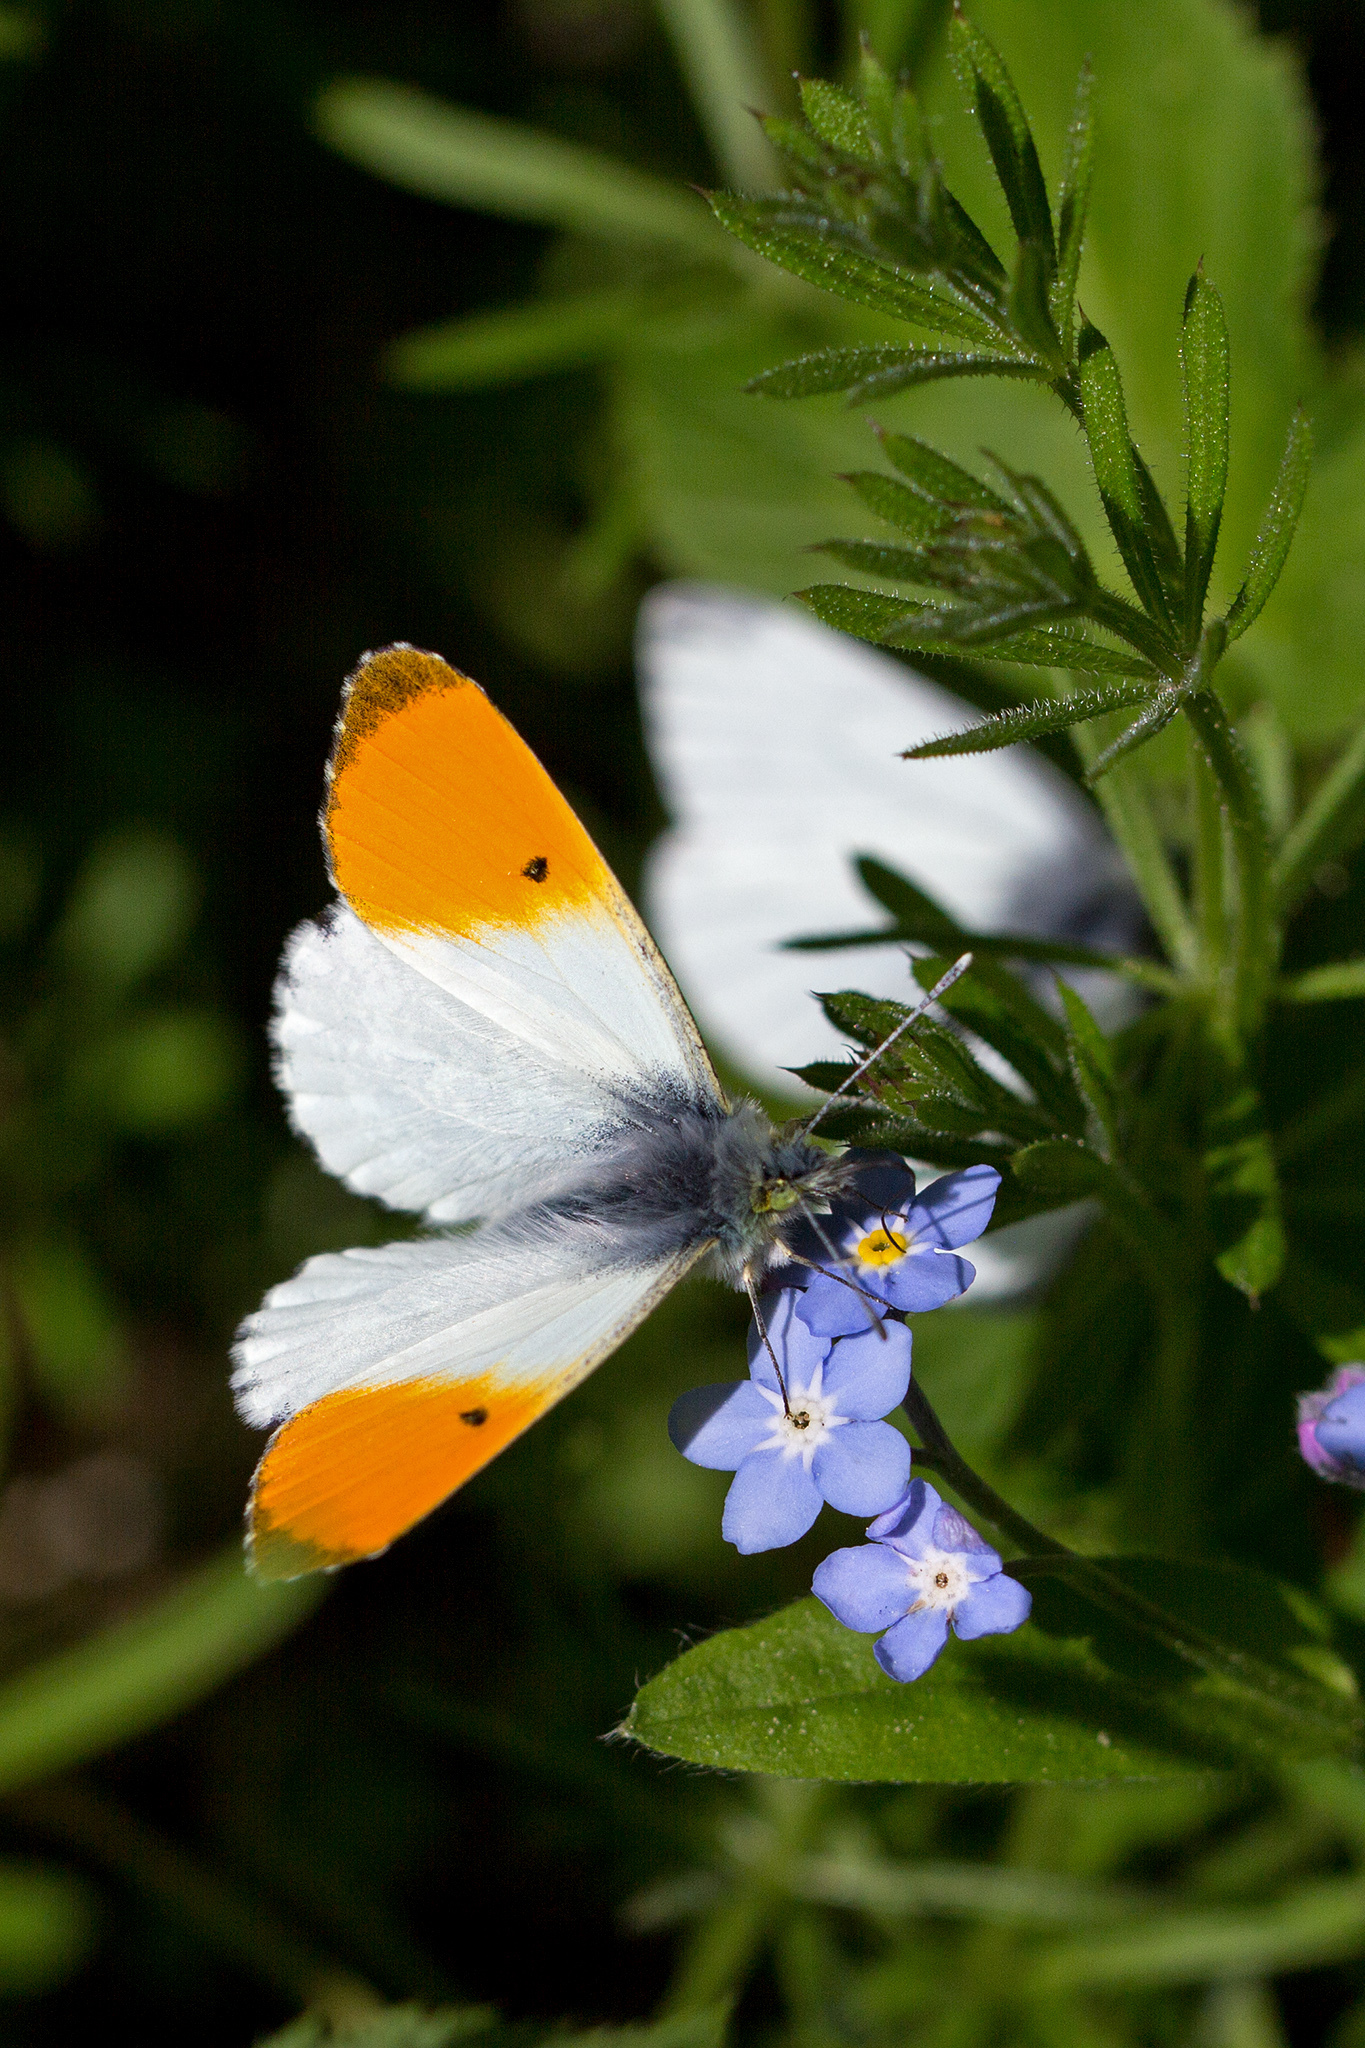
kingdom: Animalia
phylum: Arthropoda
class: Insecta
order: Lepidoptera
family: Pieridae
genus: Anthocharis
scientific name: Anthocharis cardamines
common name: Orange-tip
